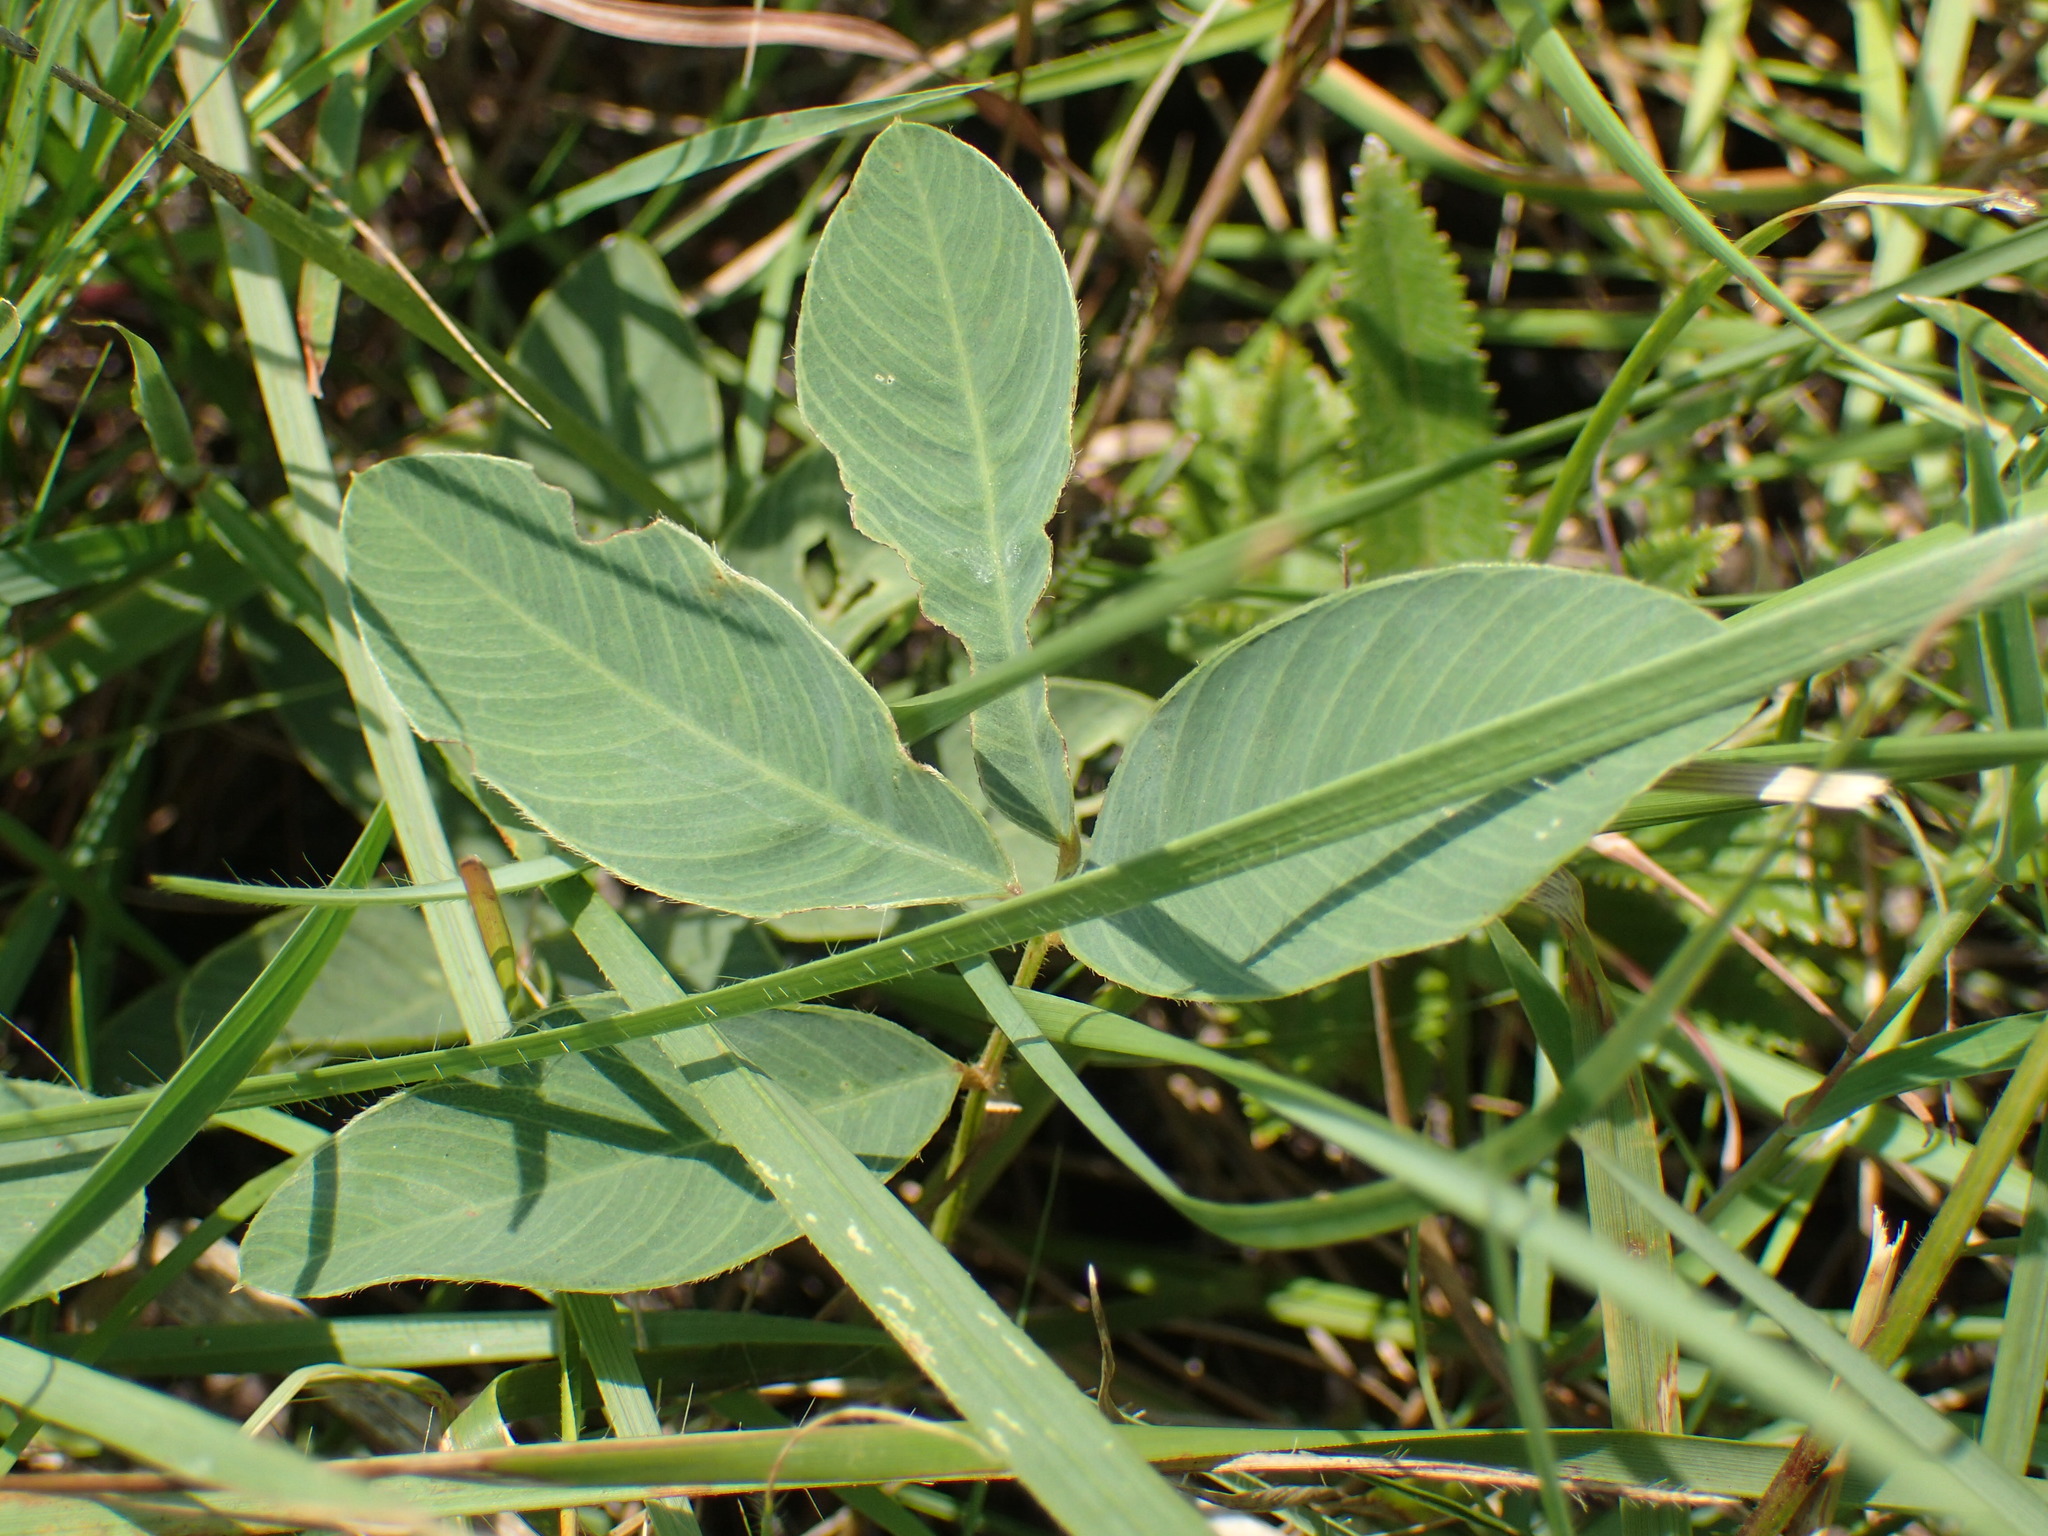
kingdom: Plantae
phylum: Tracheophyta
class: Magnoliopsida
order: Fabales
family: Fabaceae
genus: Tephrosia
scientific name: Tephrosia macropoda
